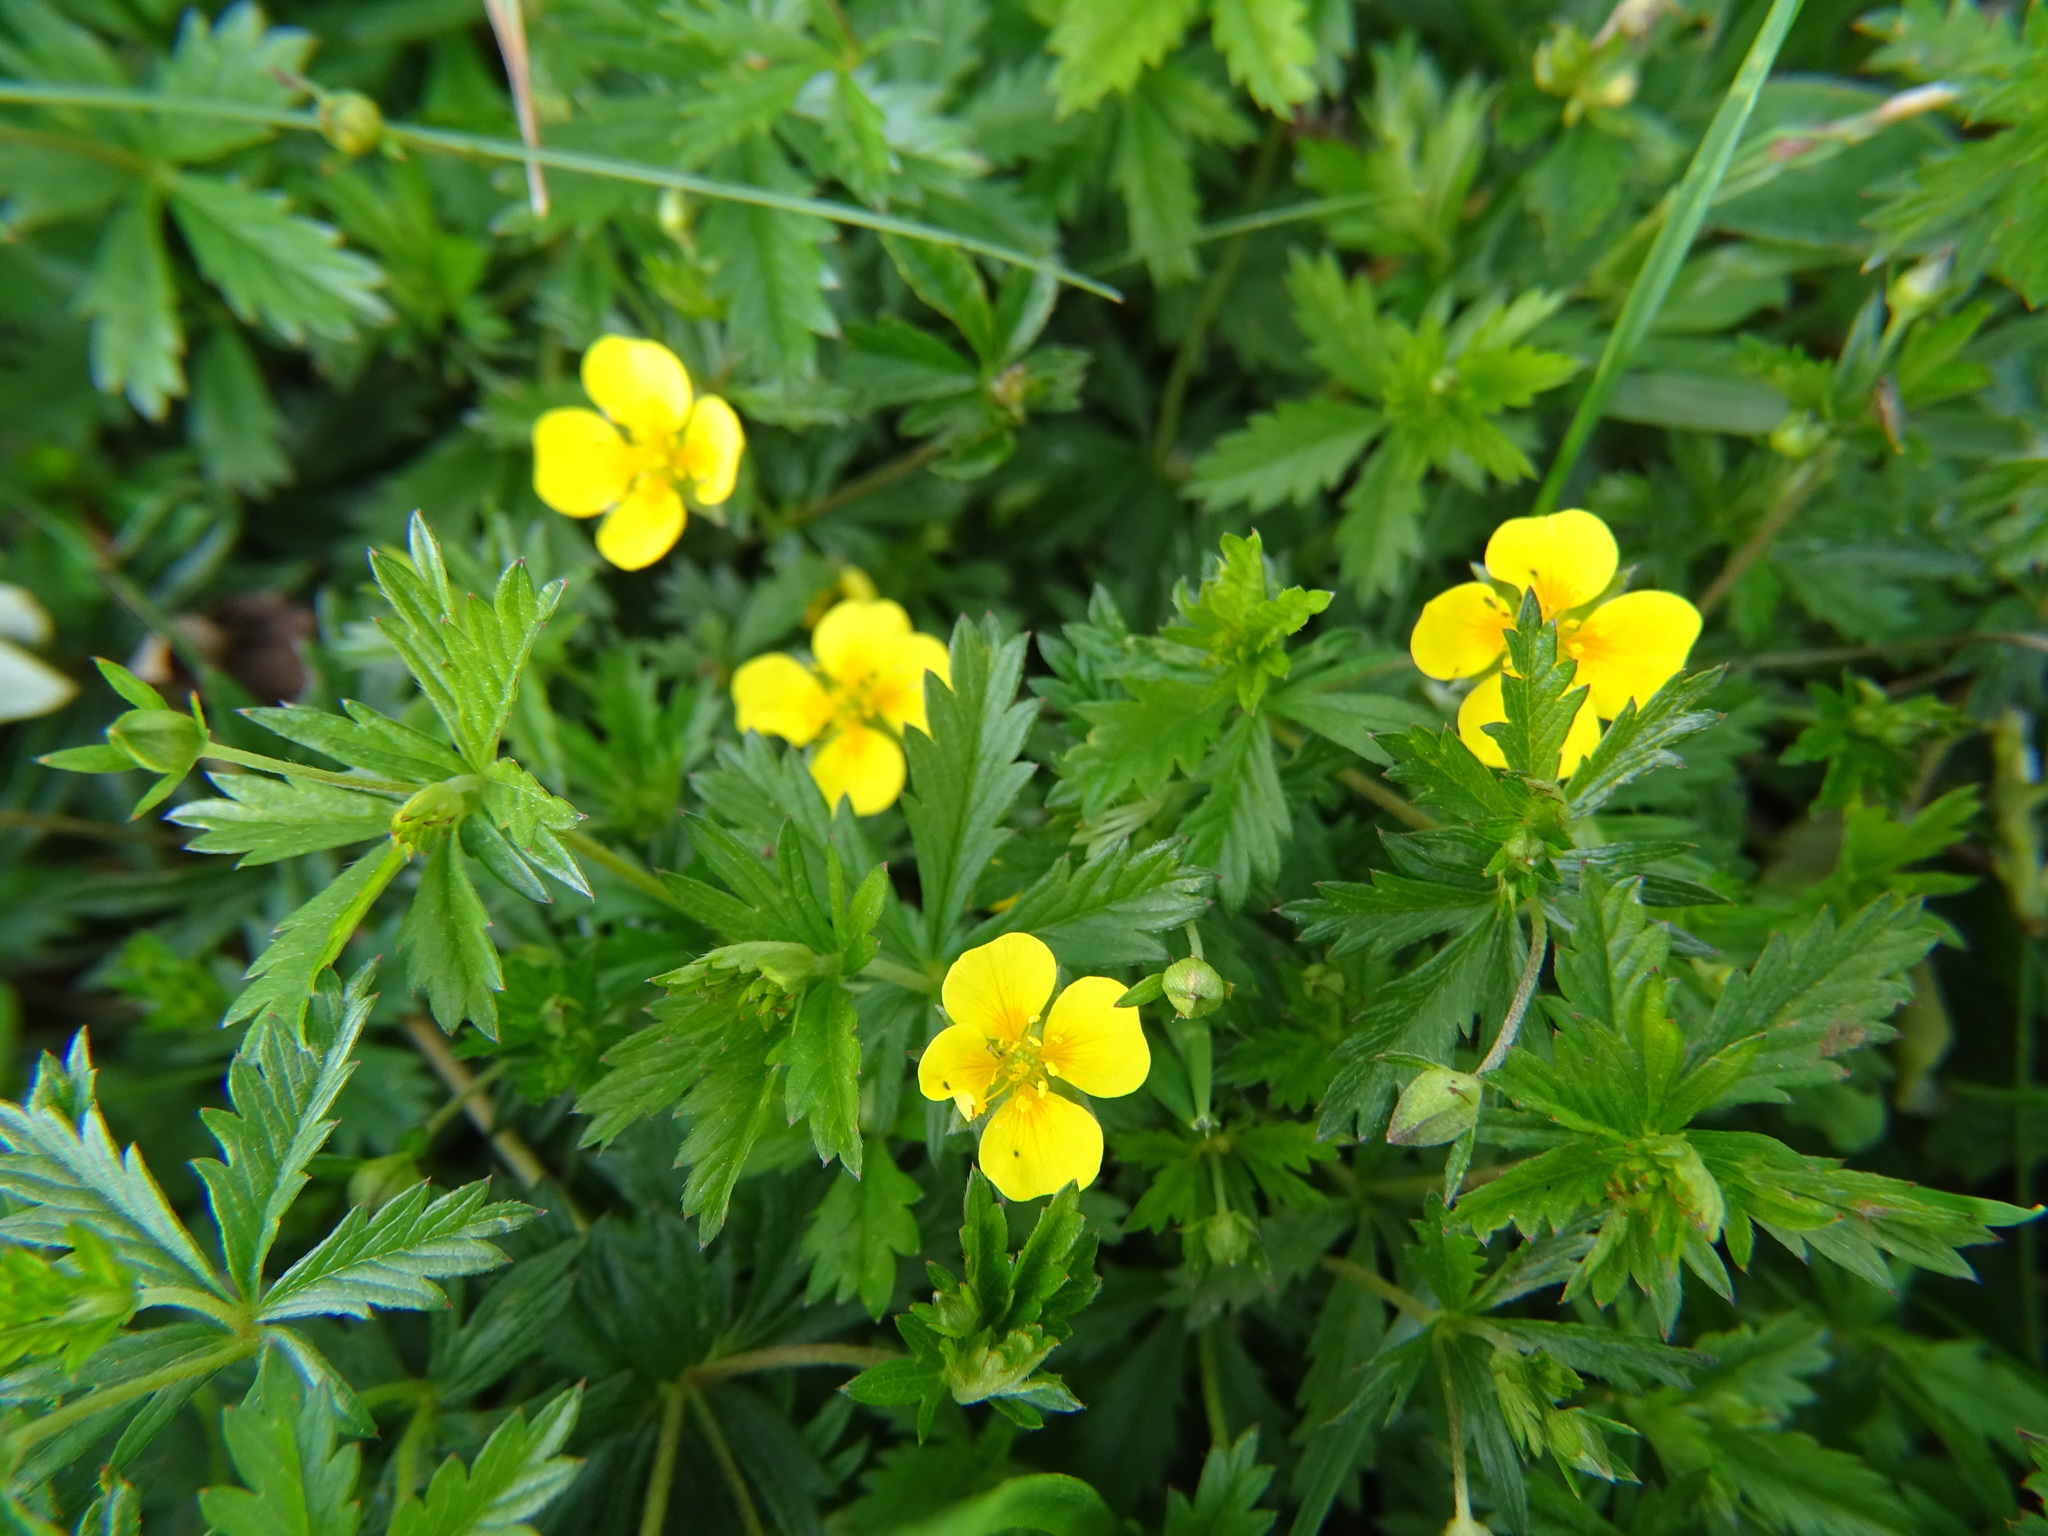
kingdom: Plantae
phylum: Tracheophyta
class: Magnoliopsida
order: Rosales
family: Rosaceae
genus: Potentilla
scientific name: Potentilla erecta
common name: Tormentil
